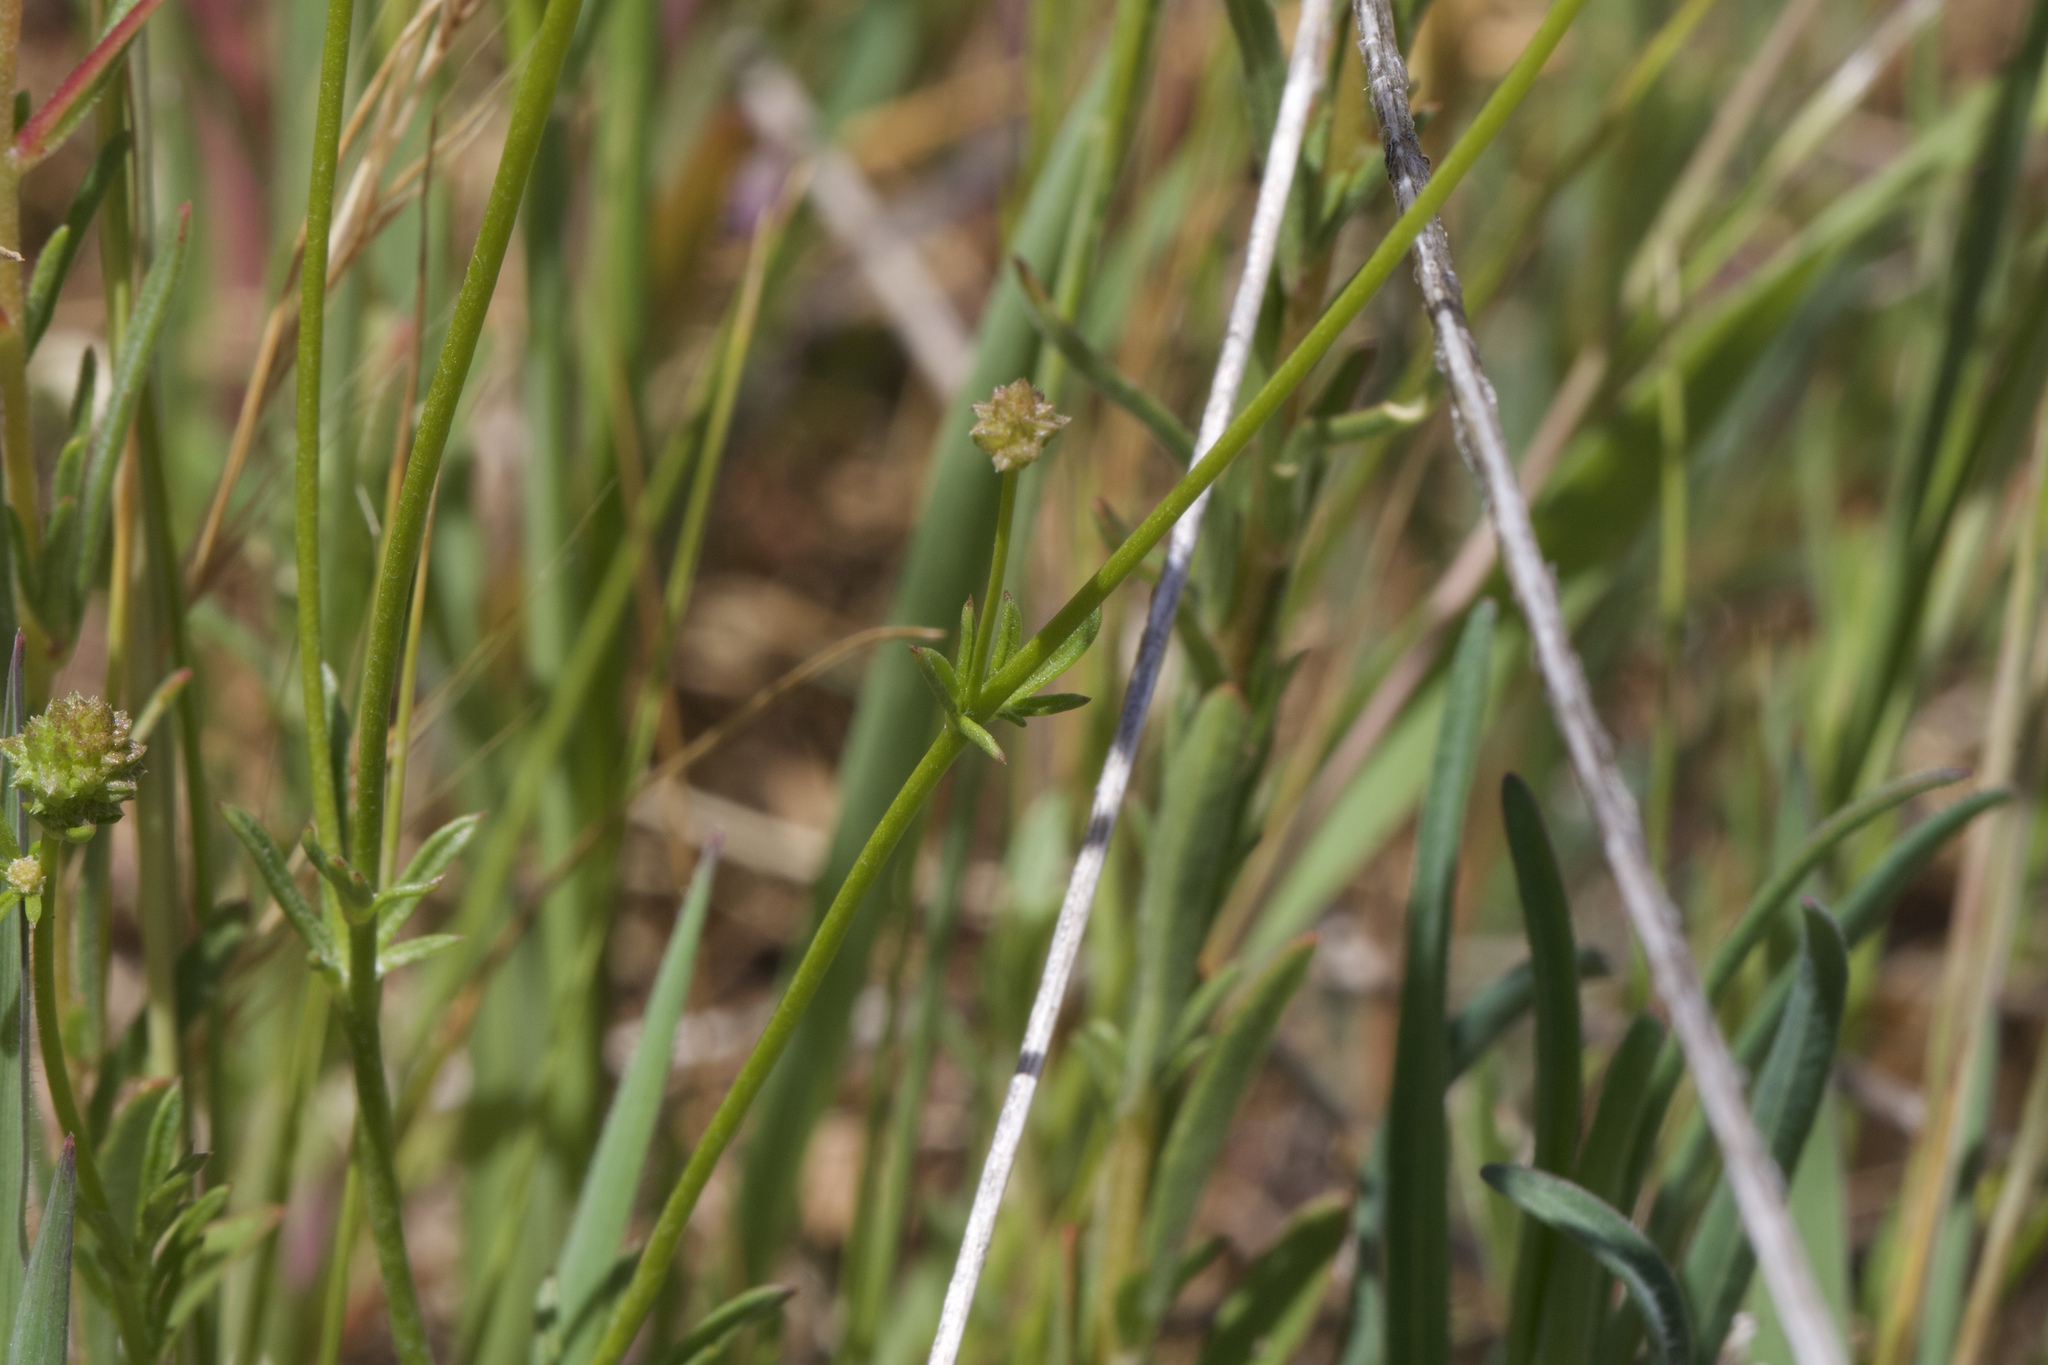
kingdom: Plantae
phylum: Tracheophyta
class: Magnoliopsida
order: Ericales
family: Polemoniaceae
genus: Gilia
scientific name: Gilia capitata
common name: Bluehead gilia
